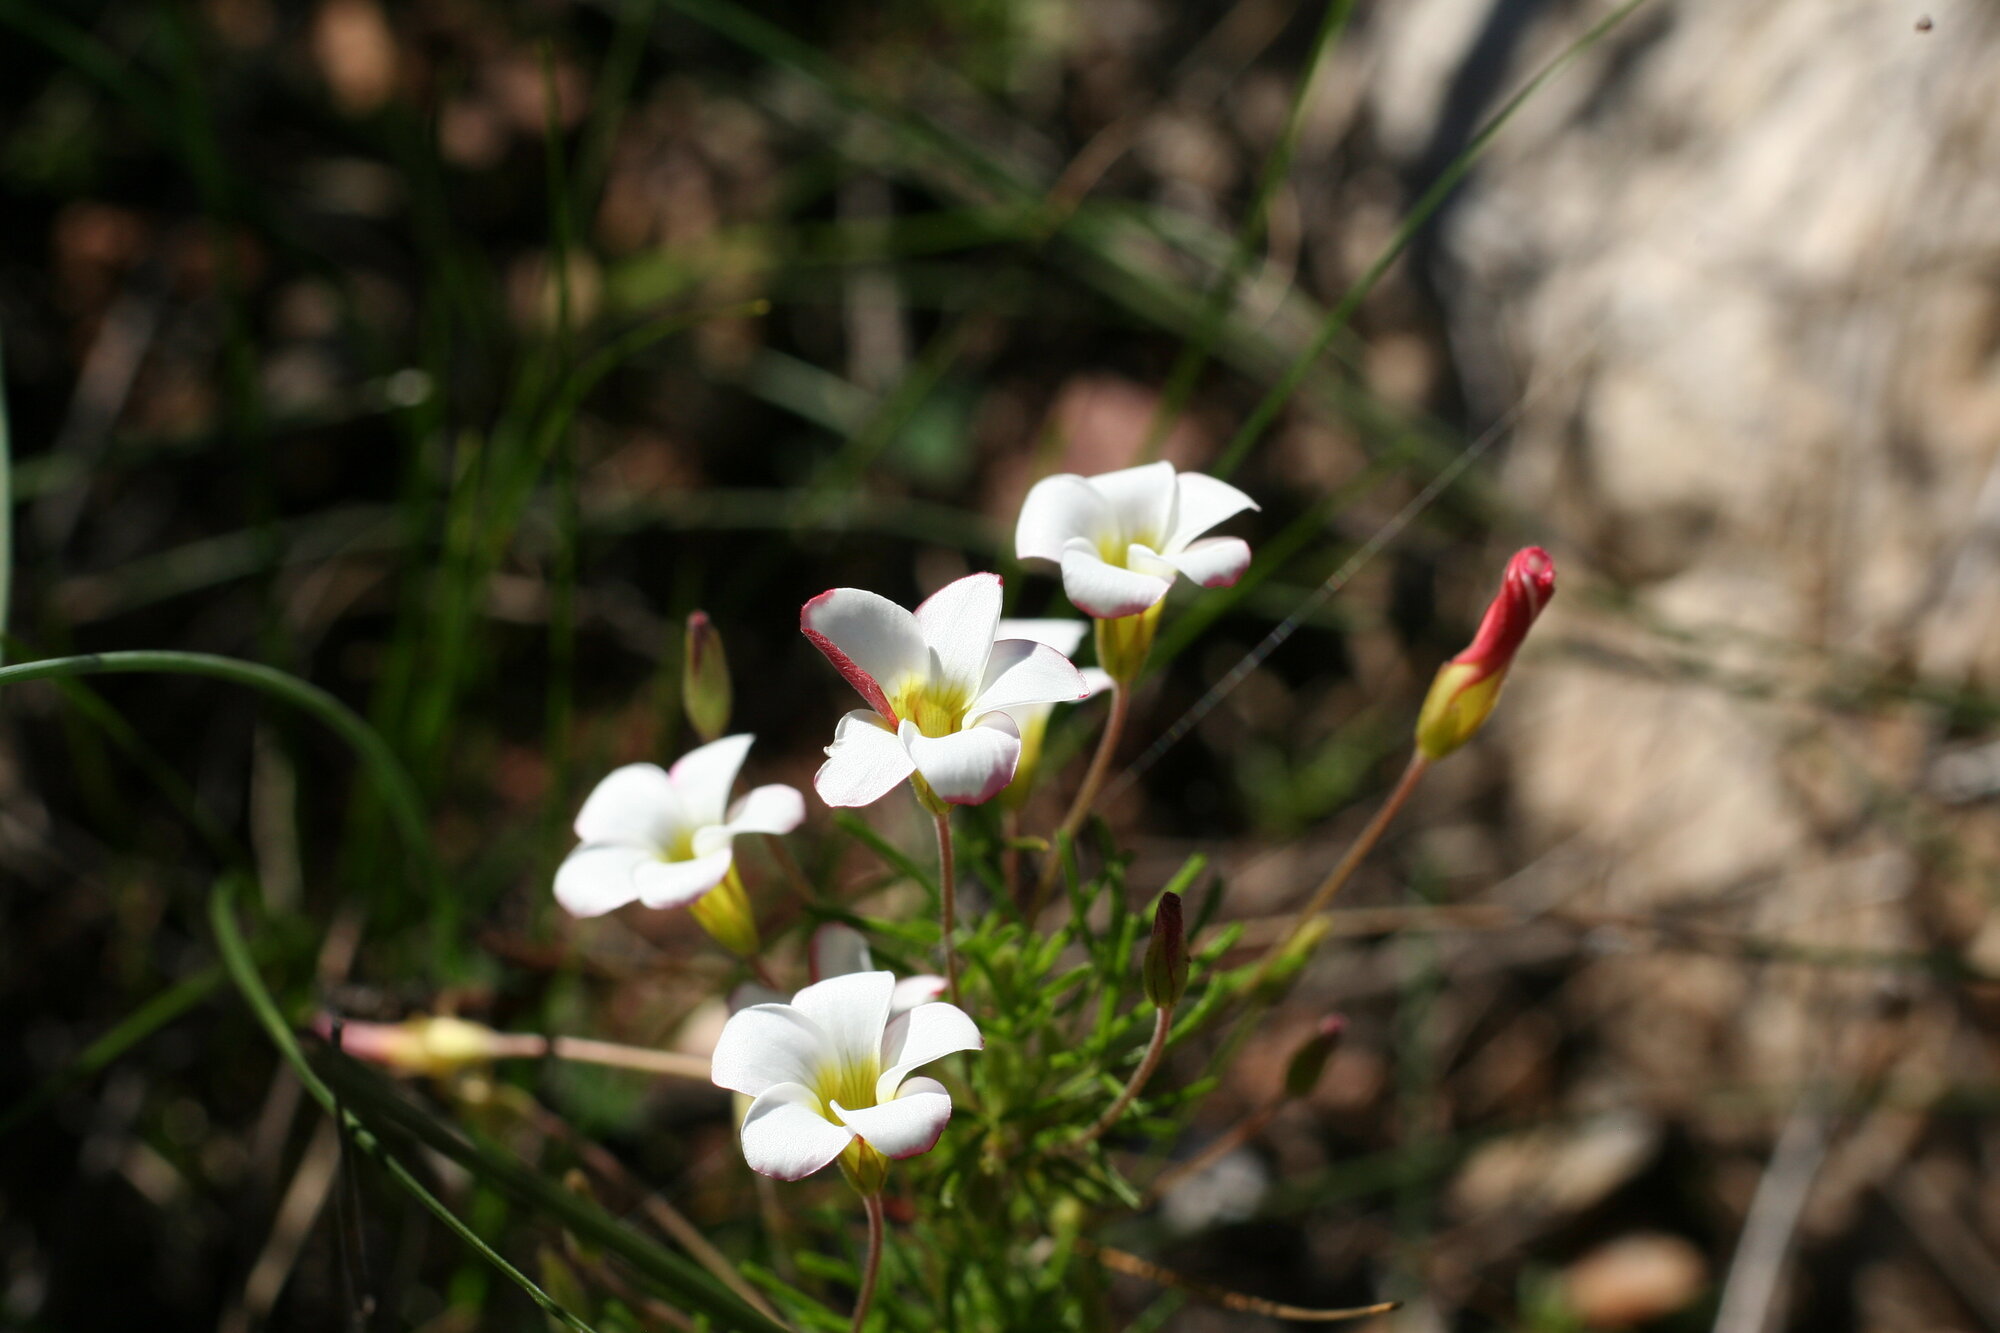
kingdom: Plantae
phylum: Tracheophyta
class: Magnoliopsida
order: Oxalidales
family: Oxalidaceae
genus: Oxalis
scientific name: Oxalis tenuifolia
